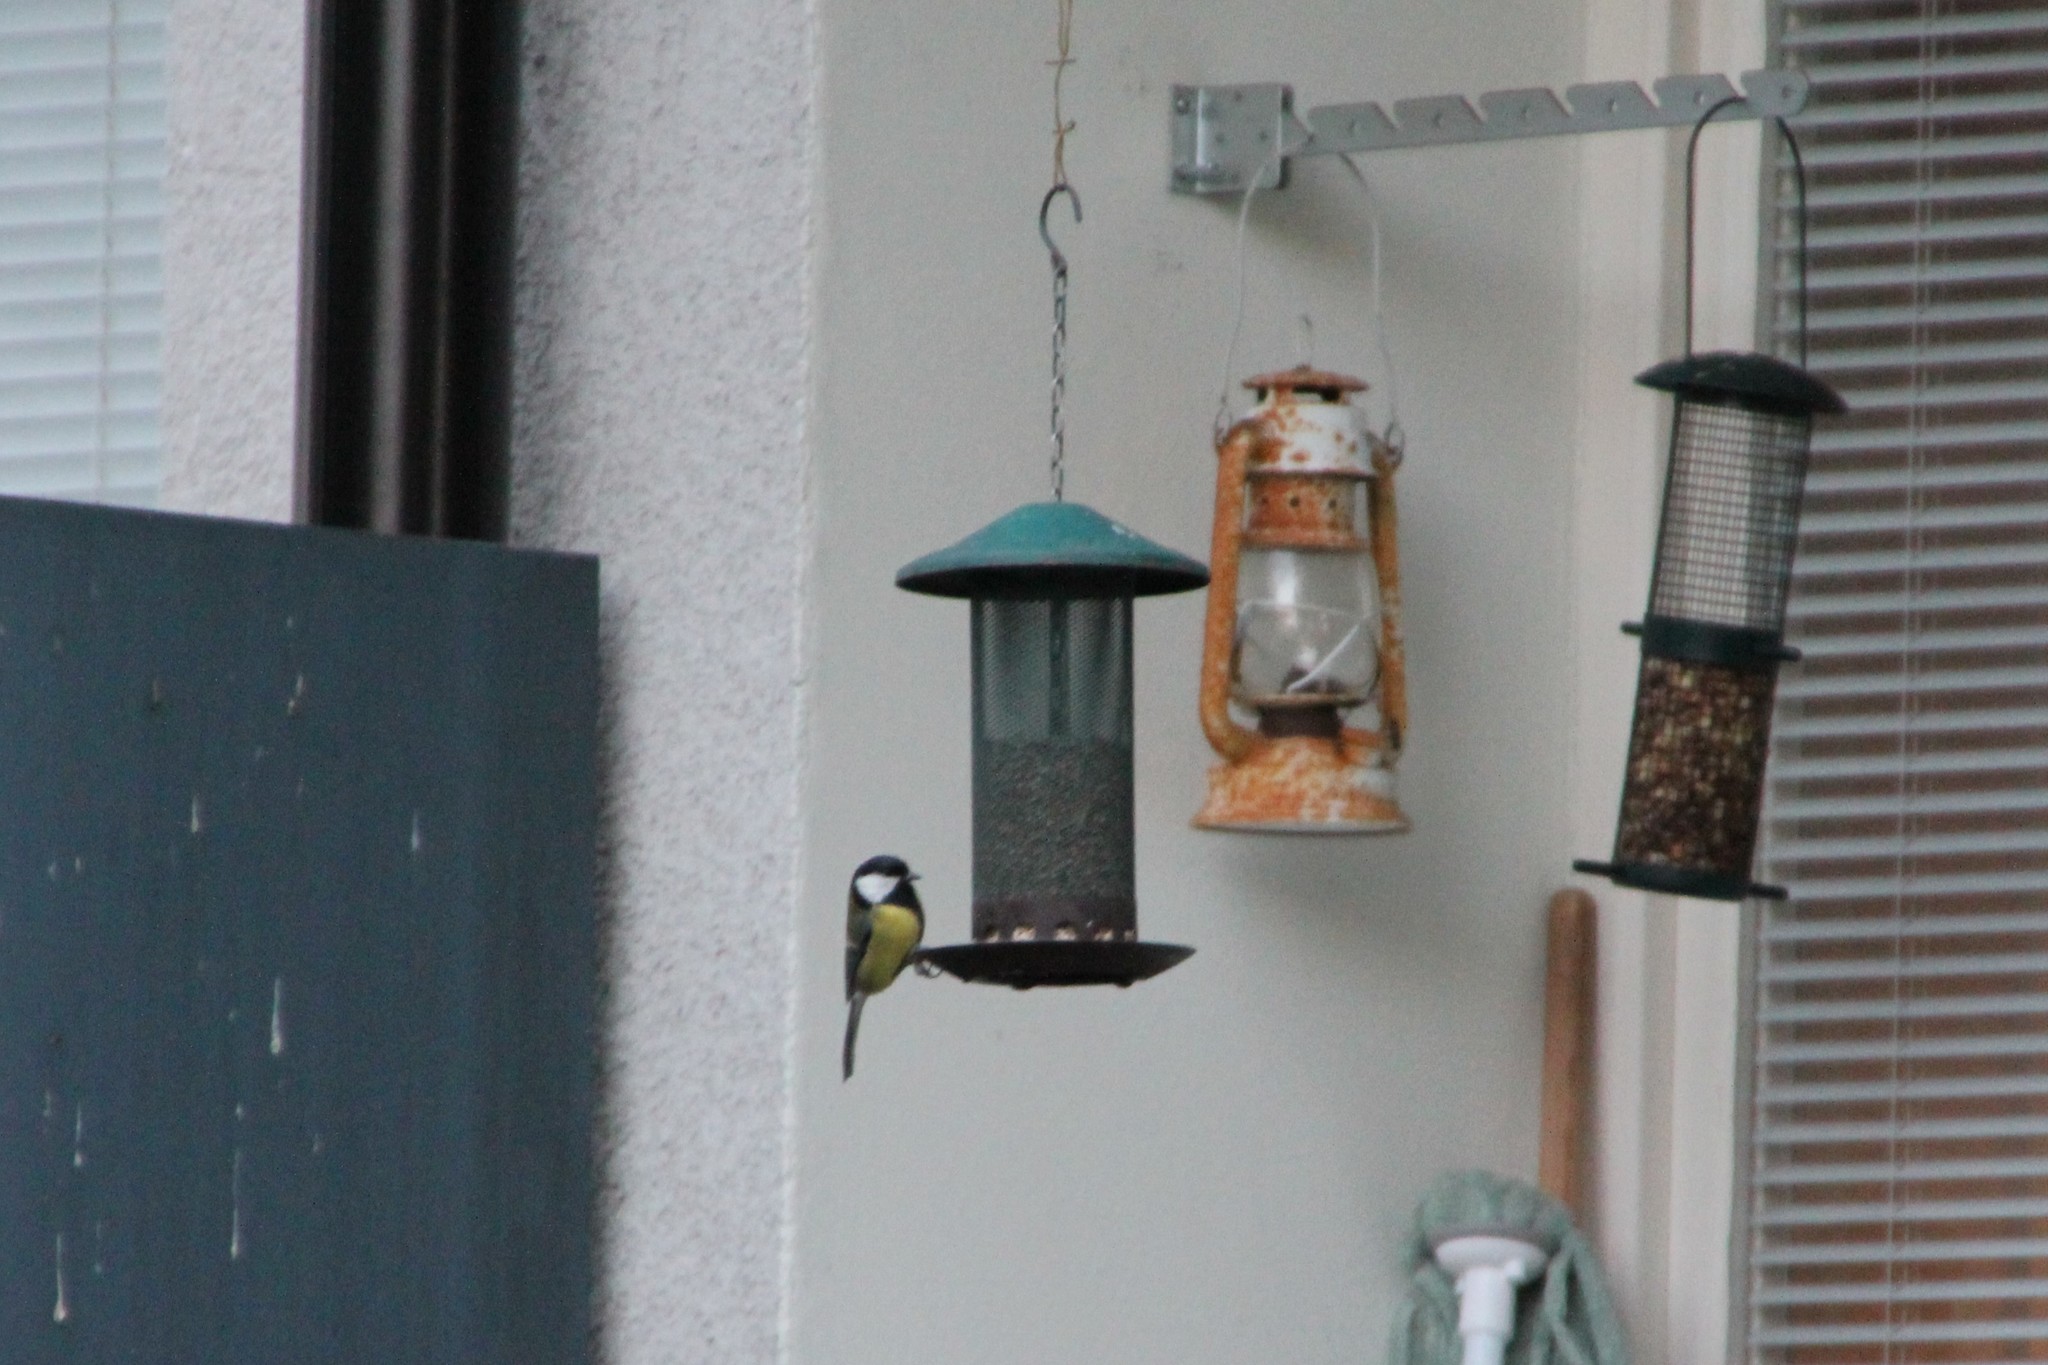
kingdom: Animalia
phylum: Chordata
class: Aves
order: Passeriformes
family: Paridae
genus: Parus
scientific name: Parus major
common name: Great tit
